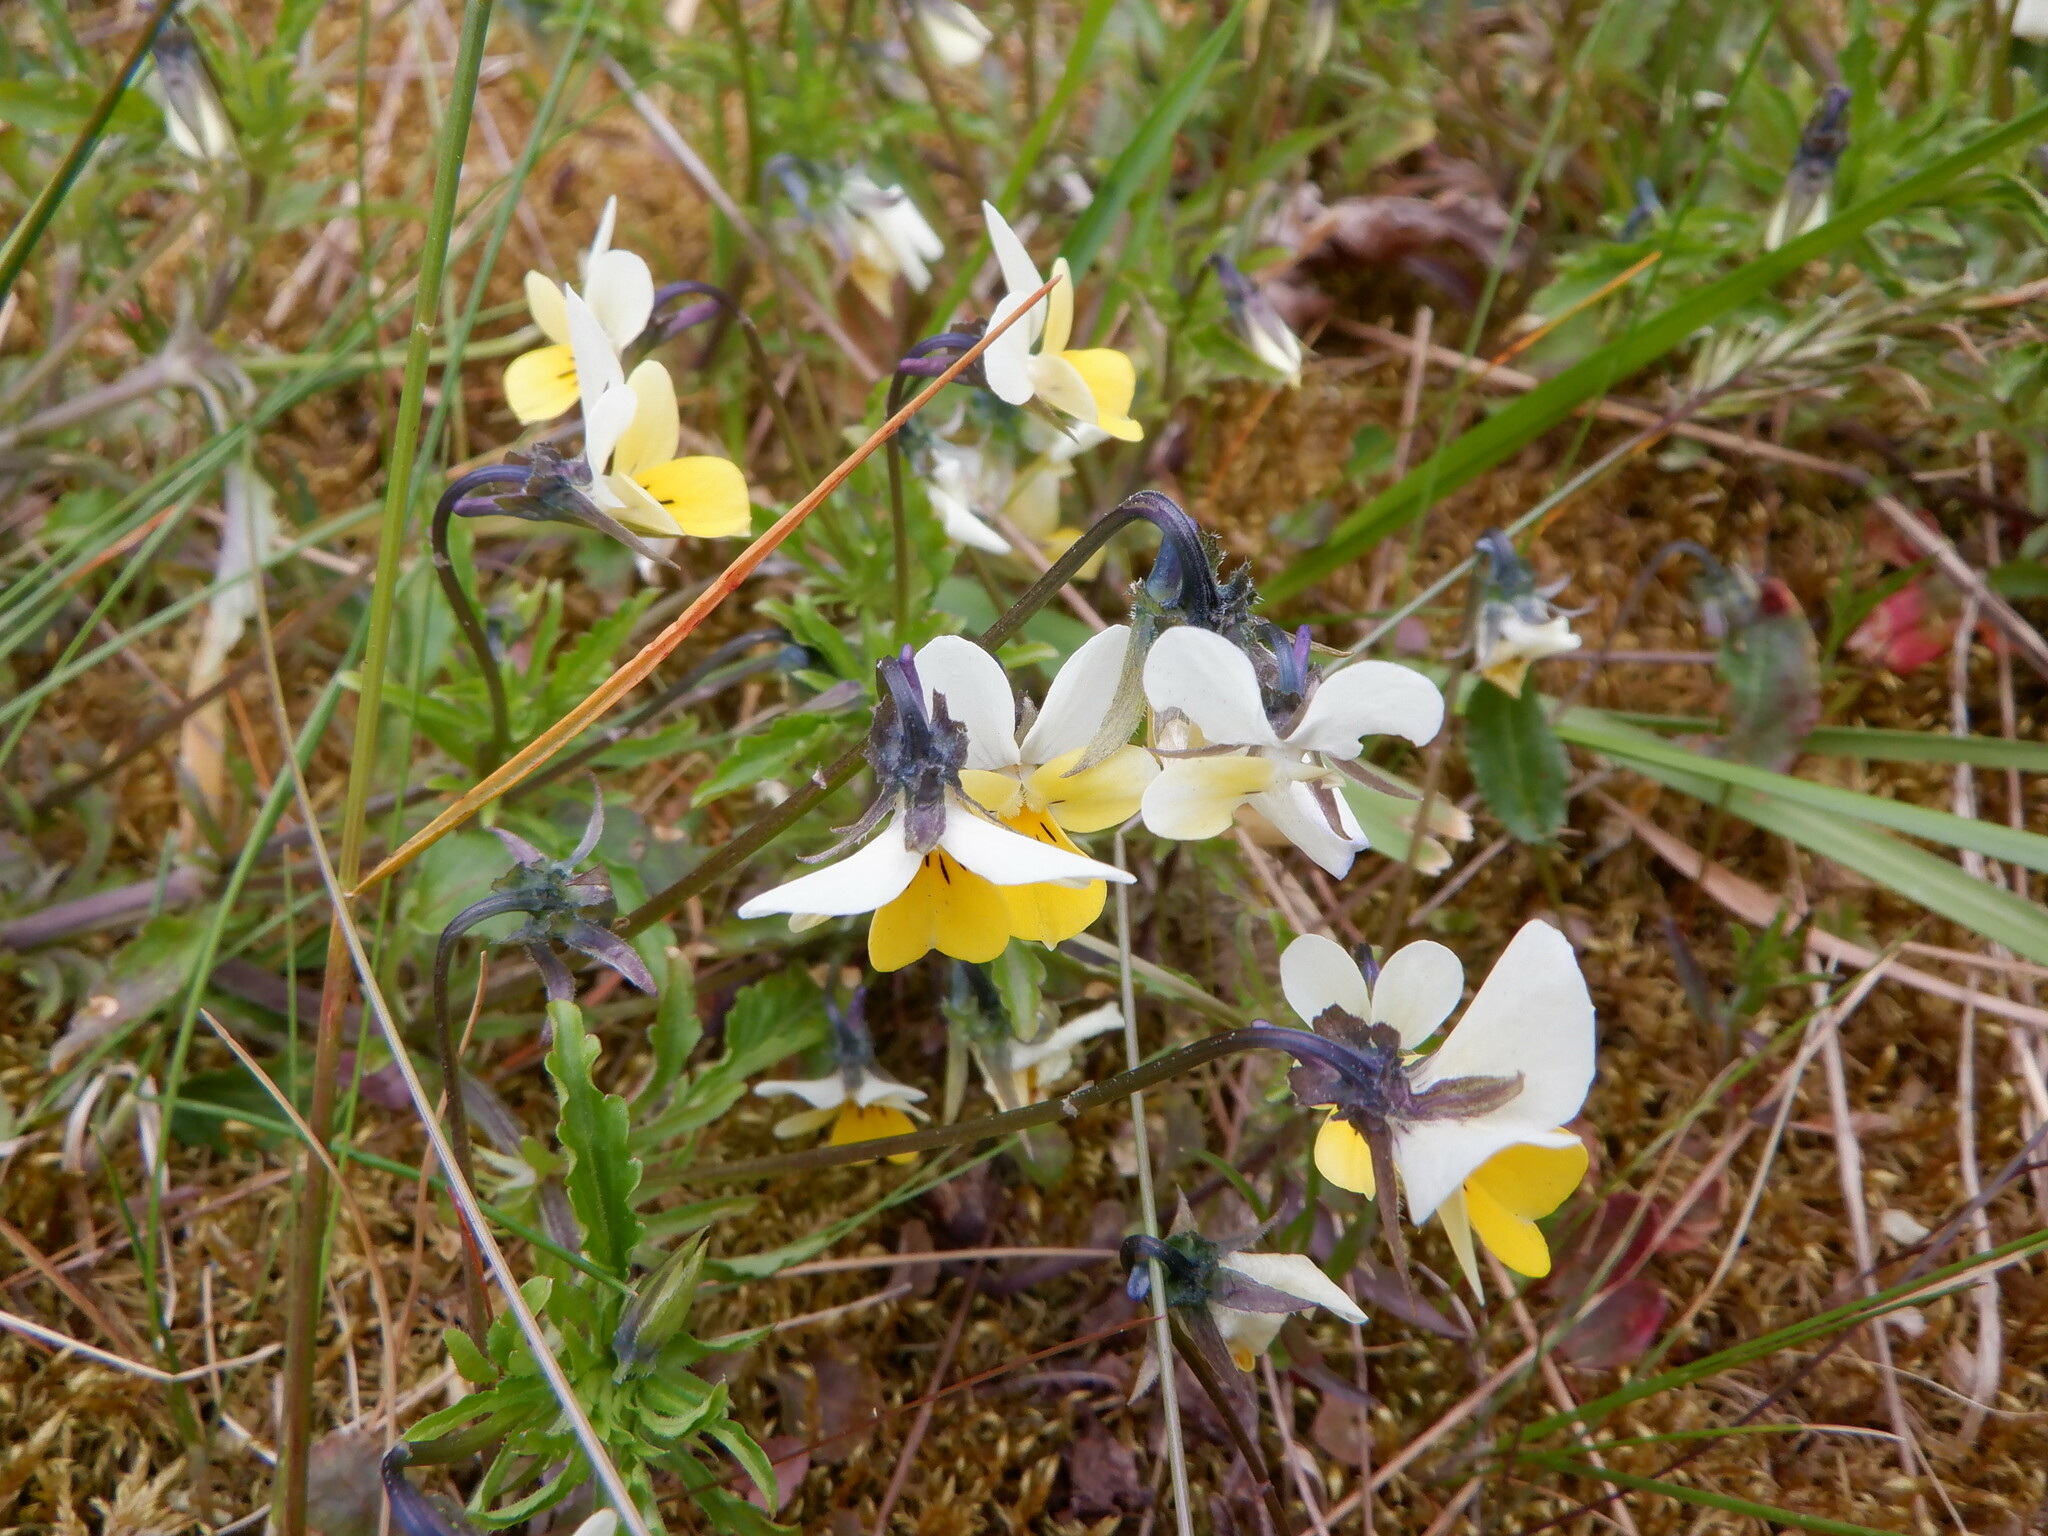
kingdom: Plantae
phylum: Tracheophyta
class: Magnoliopsida
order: Malpighiales
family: Violaceae
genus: Viola
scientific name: Viola lutea
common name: Mountain pansy
